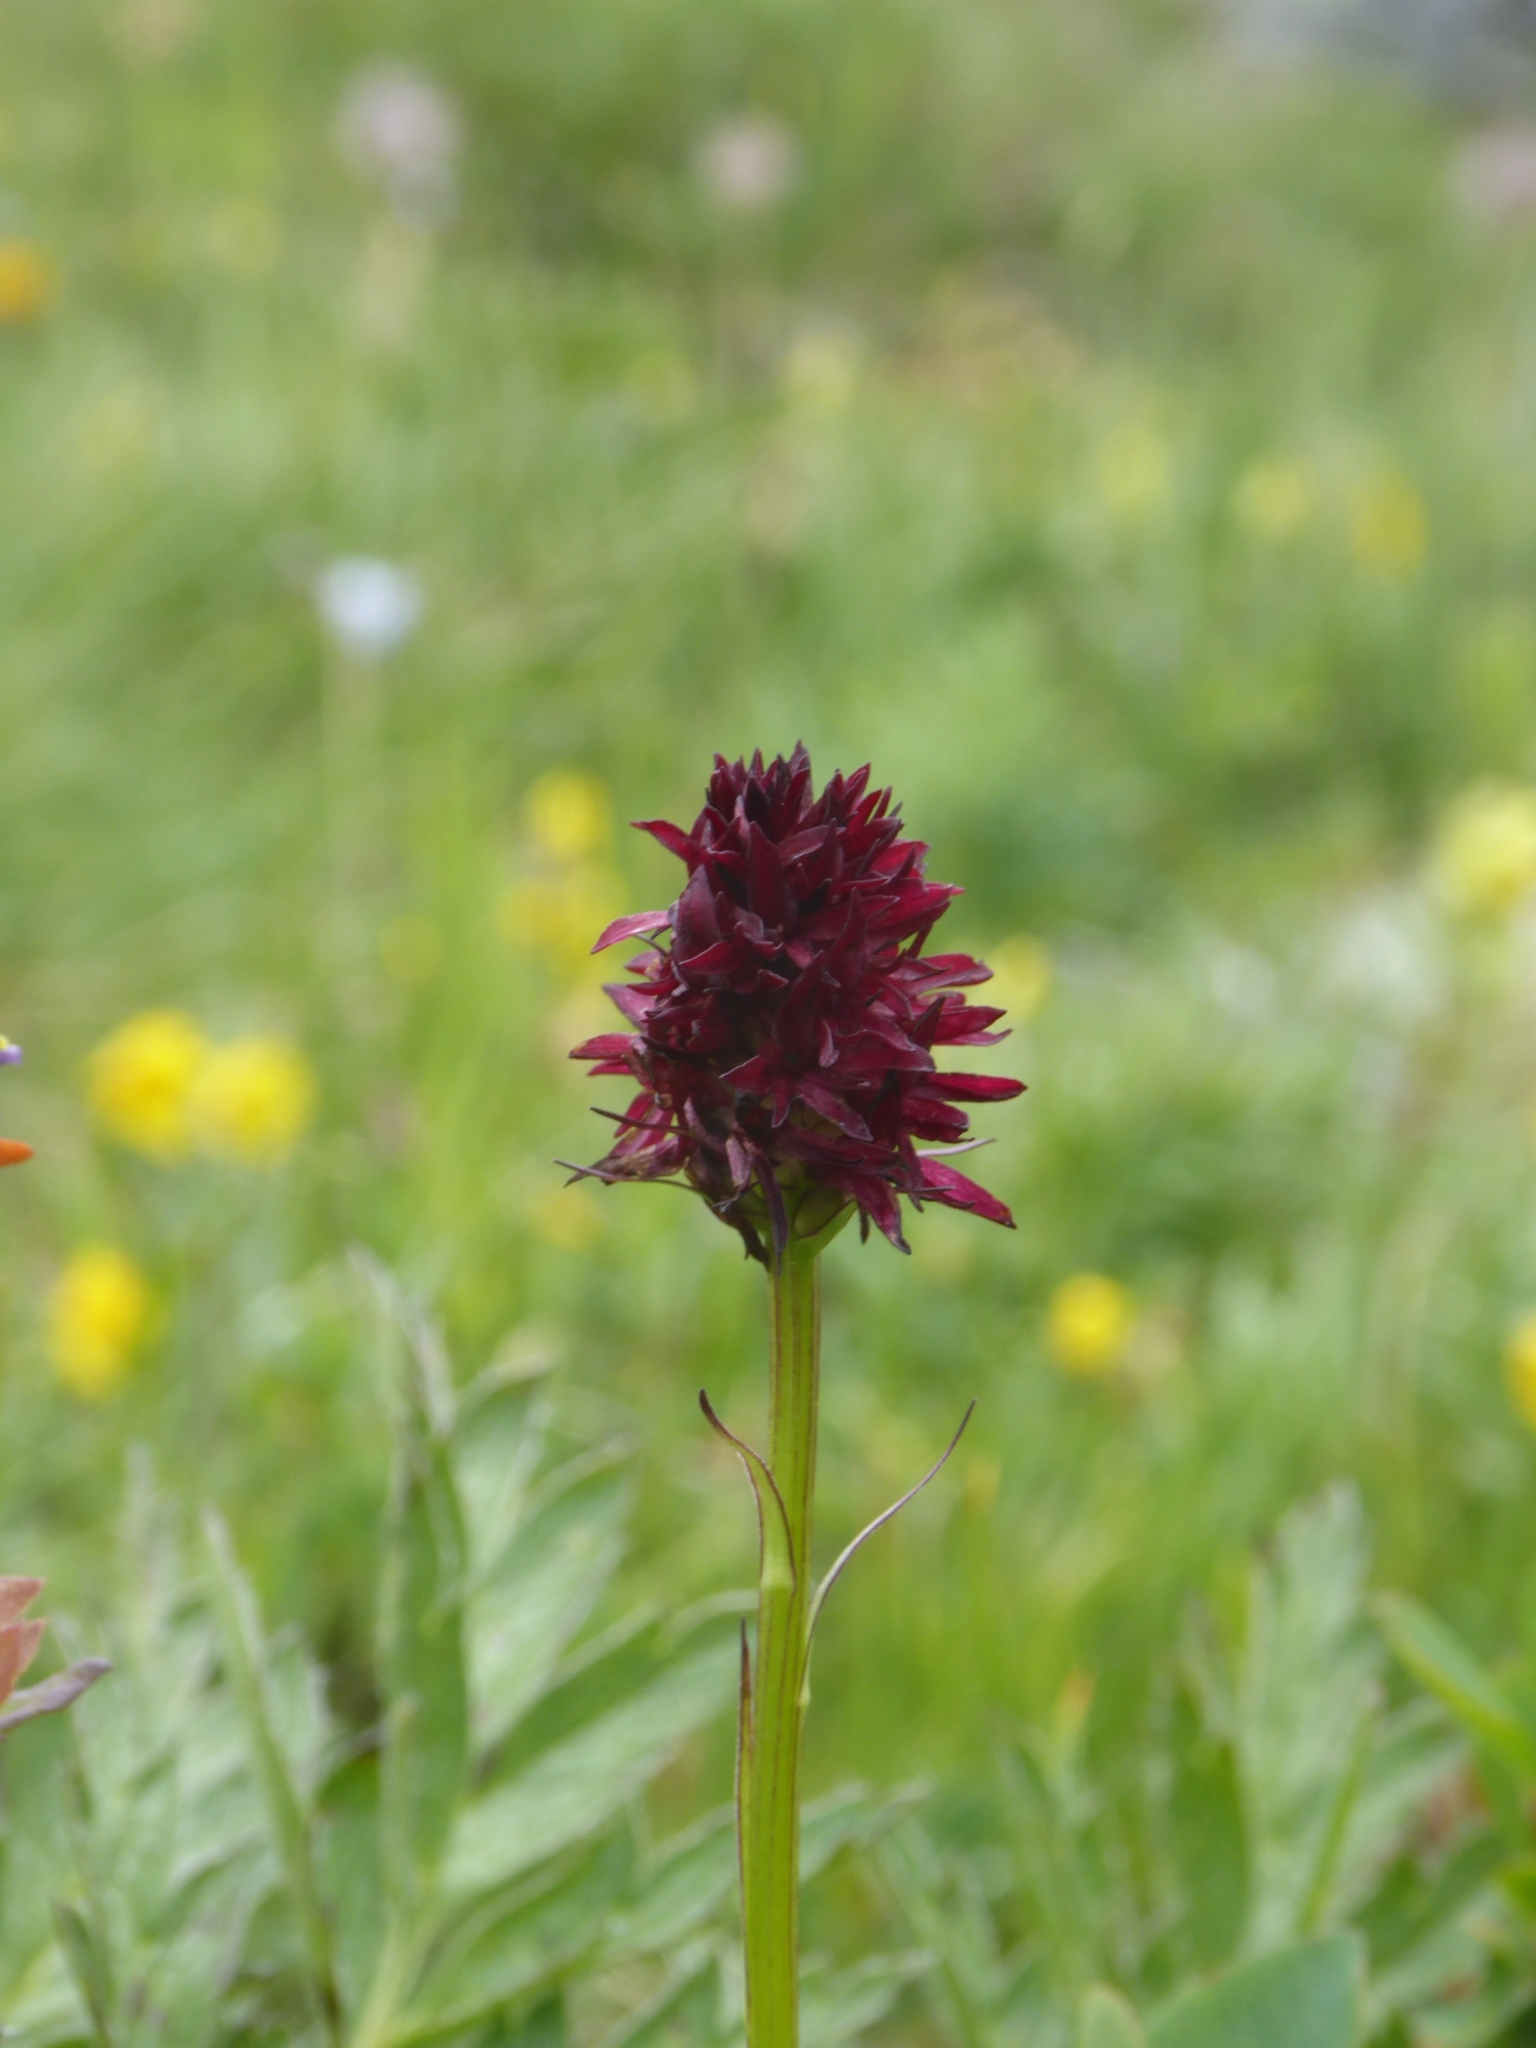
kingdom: Plantae
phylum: Tracheophyta
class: Liliopsida
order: Asparagales
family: Orchidaceae
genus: Gymnadenia
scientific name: Gymnadenia rhellicani
